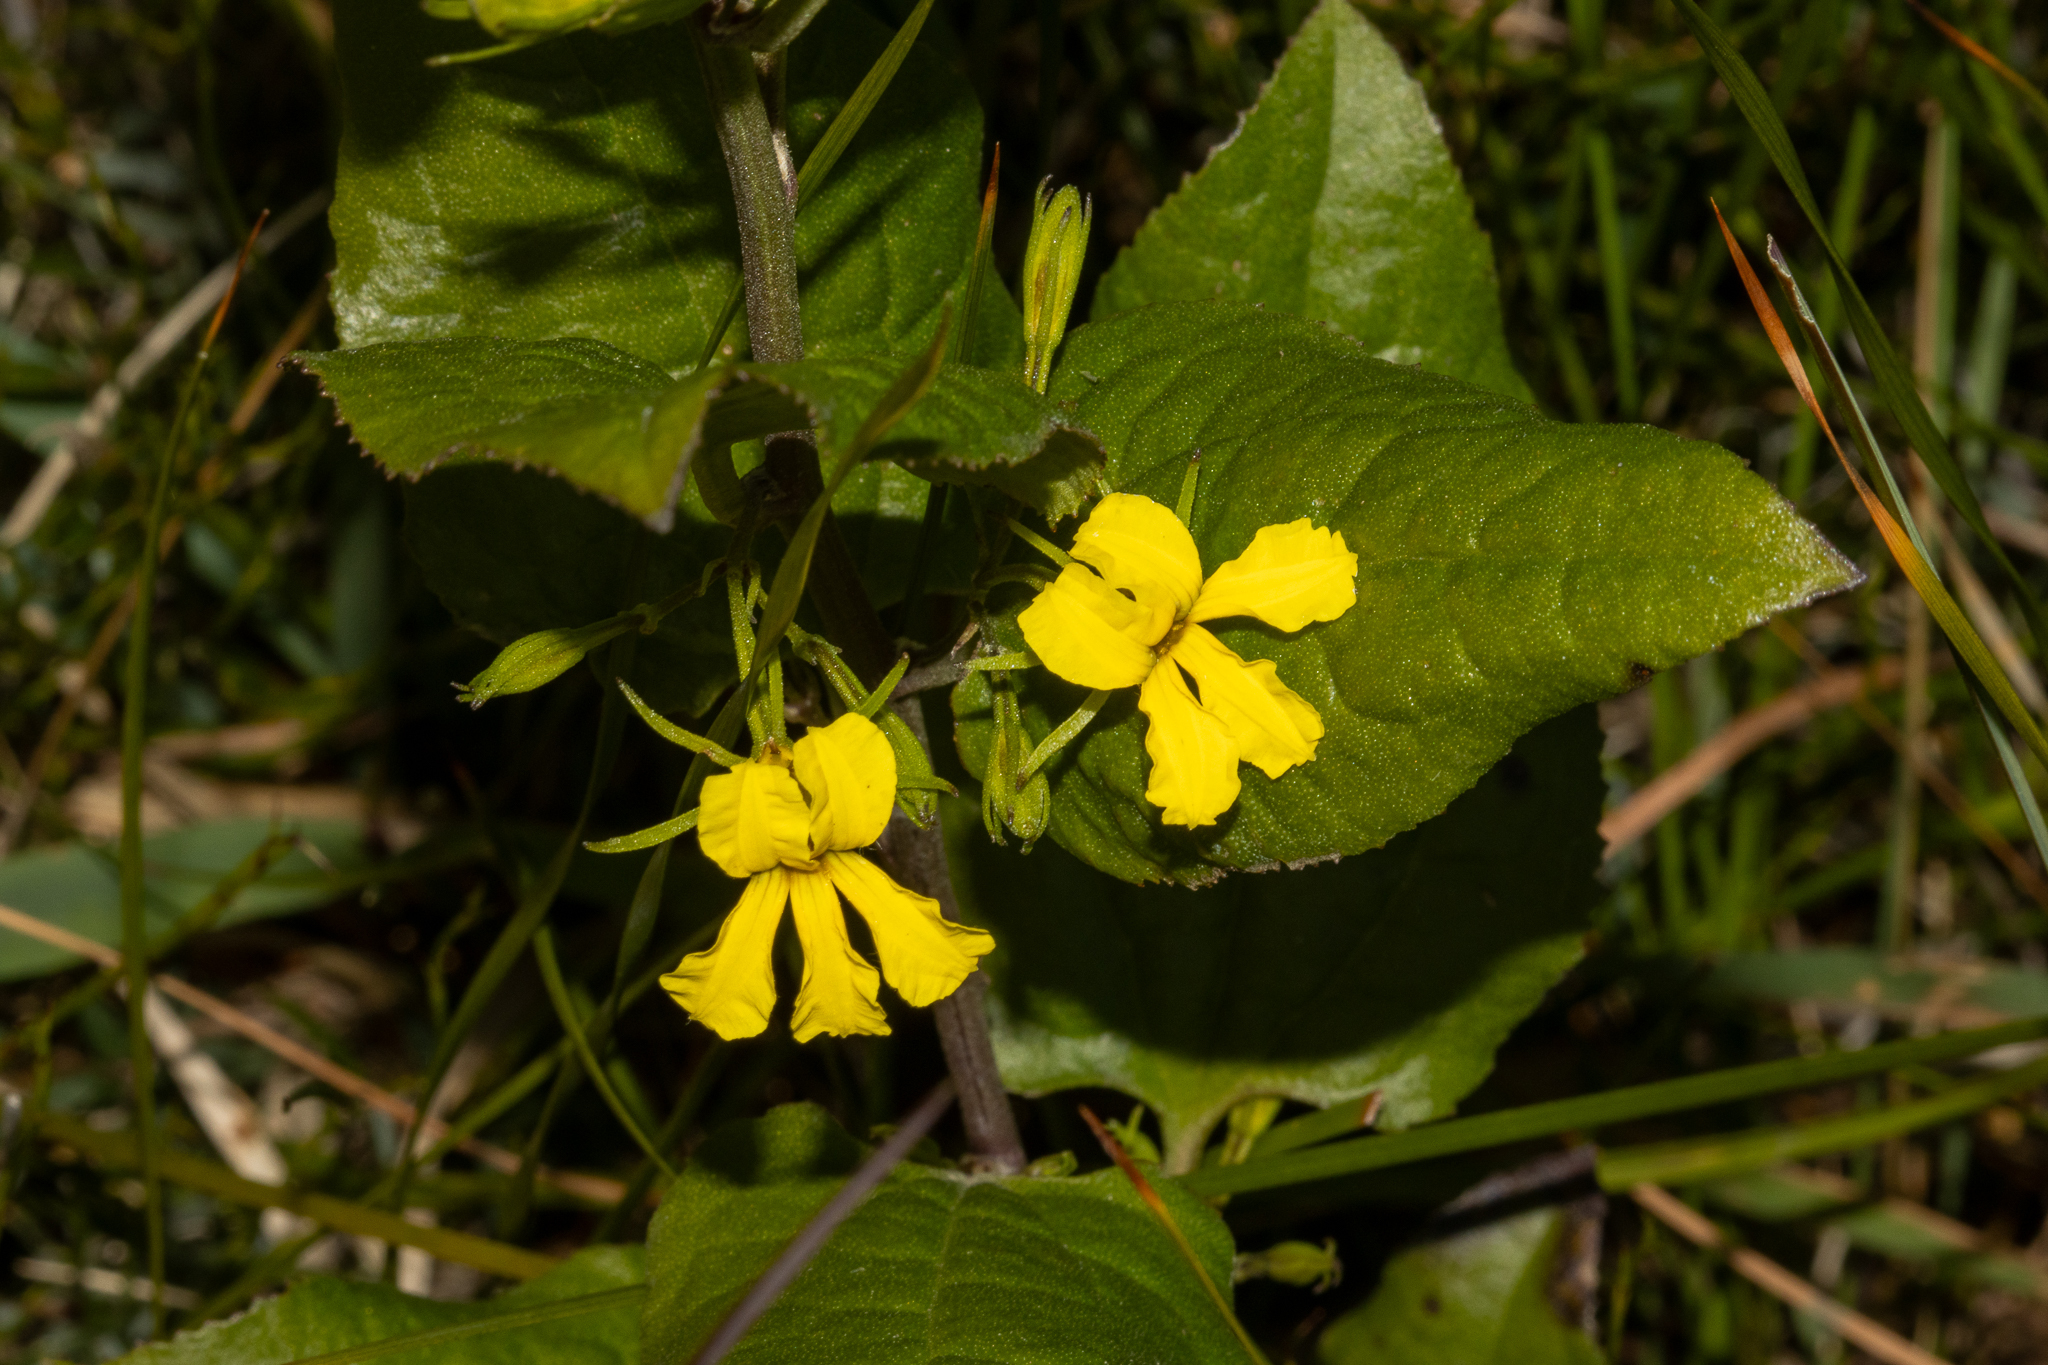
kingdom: Plantae
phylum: Tracheophyta
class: Magnoliopsida
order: Asterales
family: Goodeniaceae
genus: Goodenia
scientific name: Goodenia ovata
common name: Hop goodenia
